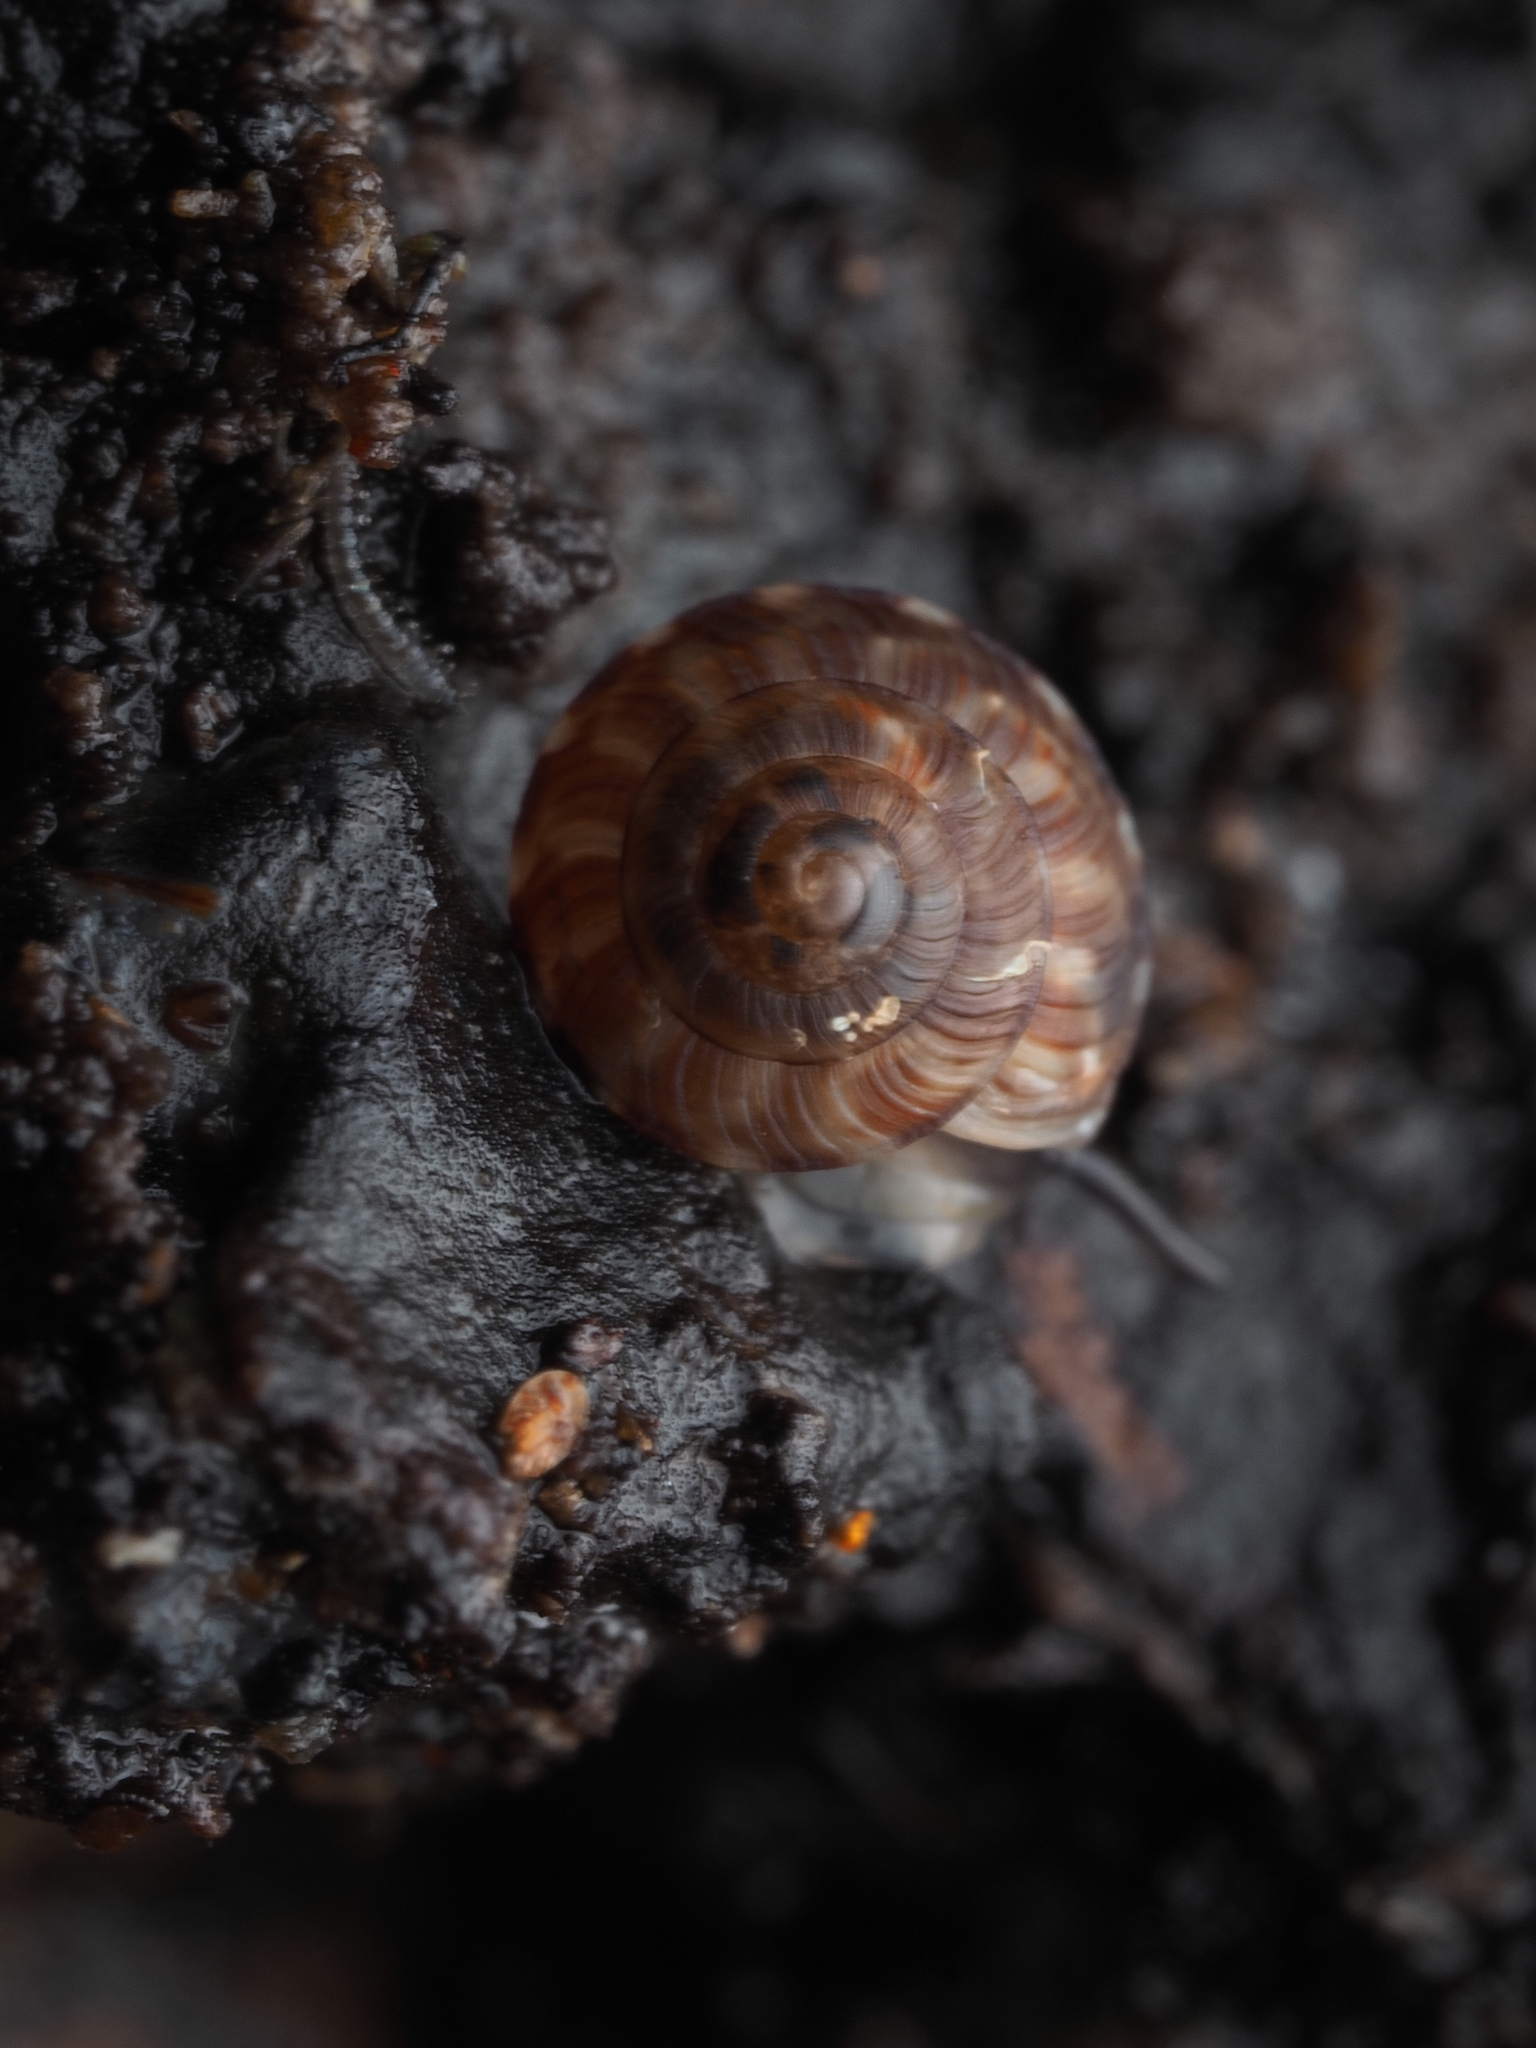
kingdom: Animalia
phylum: Mollusca
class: Gastropoda
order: Stylommatophora
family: Punctidae
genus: Laoma
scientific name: Laoma nerissa
